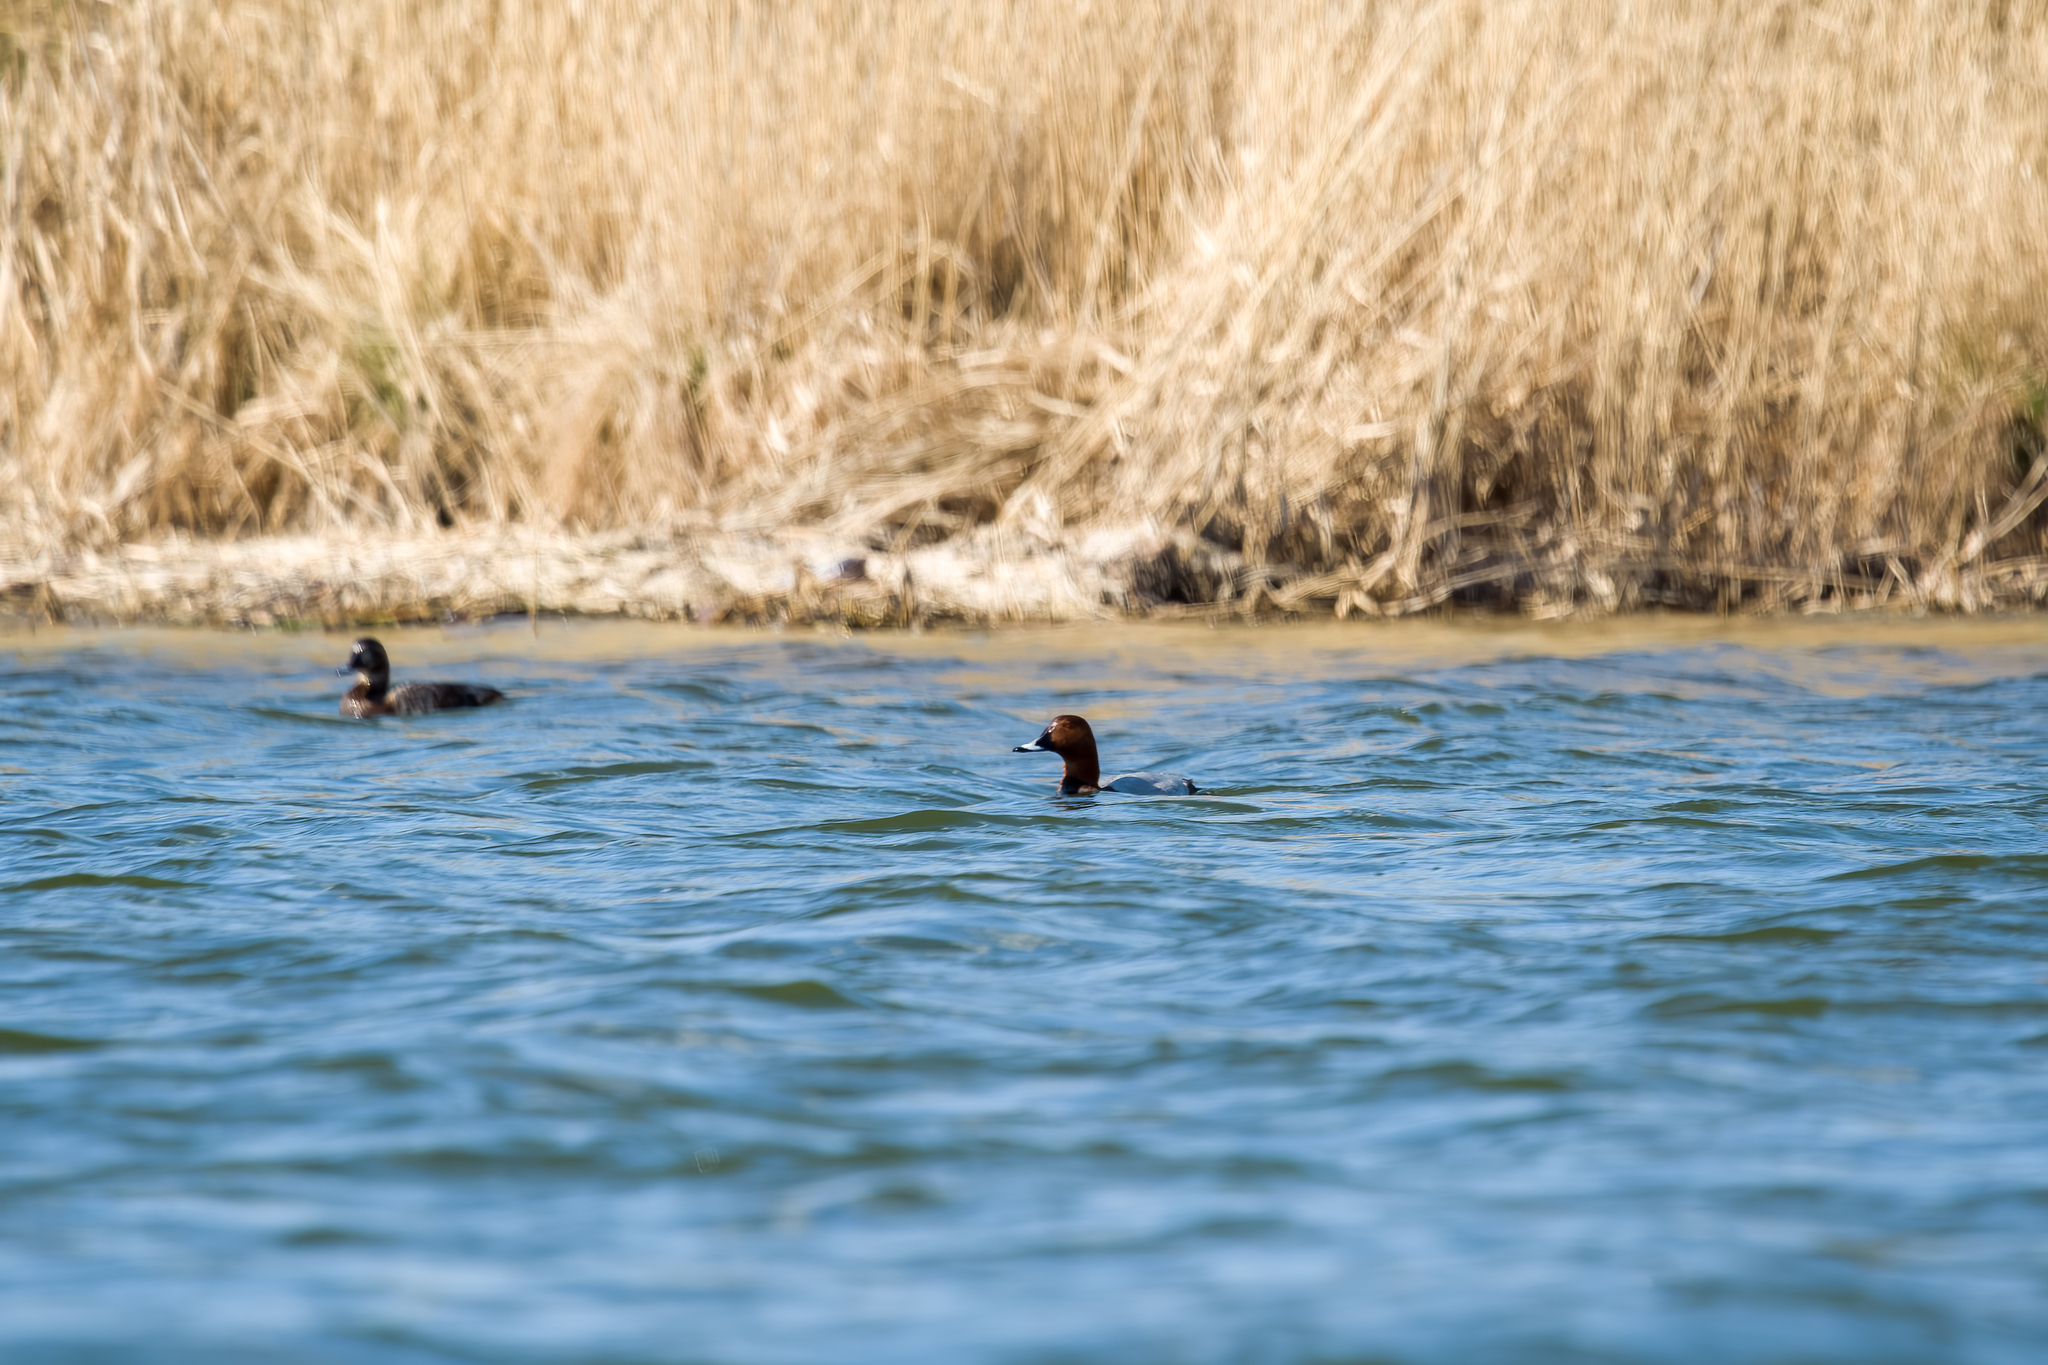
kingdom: Animalia
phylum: Chordata
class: Aves
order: Anseriformes
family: Anatidae
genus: Aythya
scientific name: Aythya ferina
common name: Common pochard
